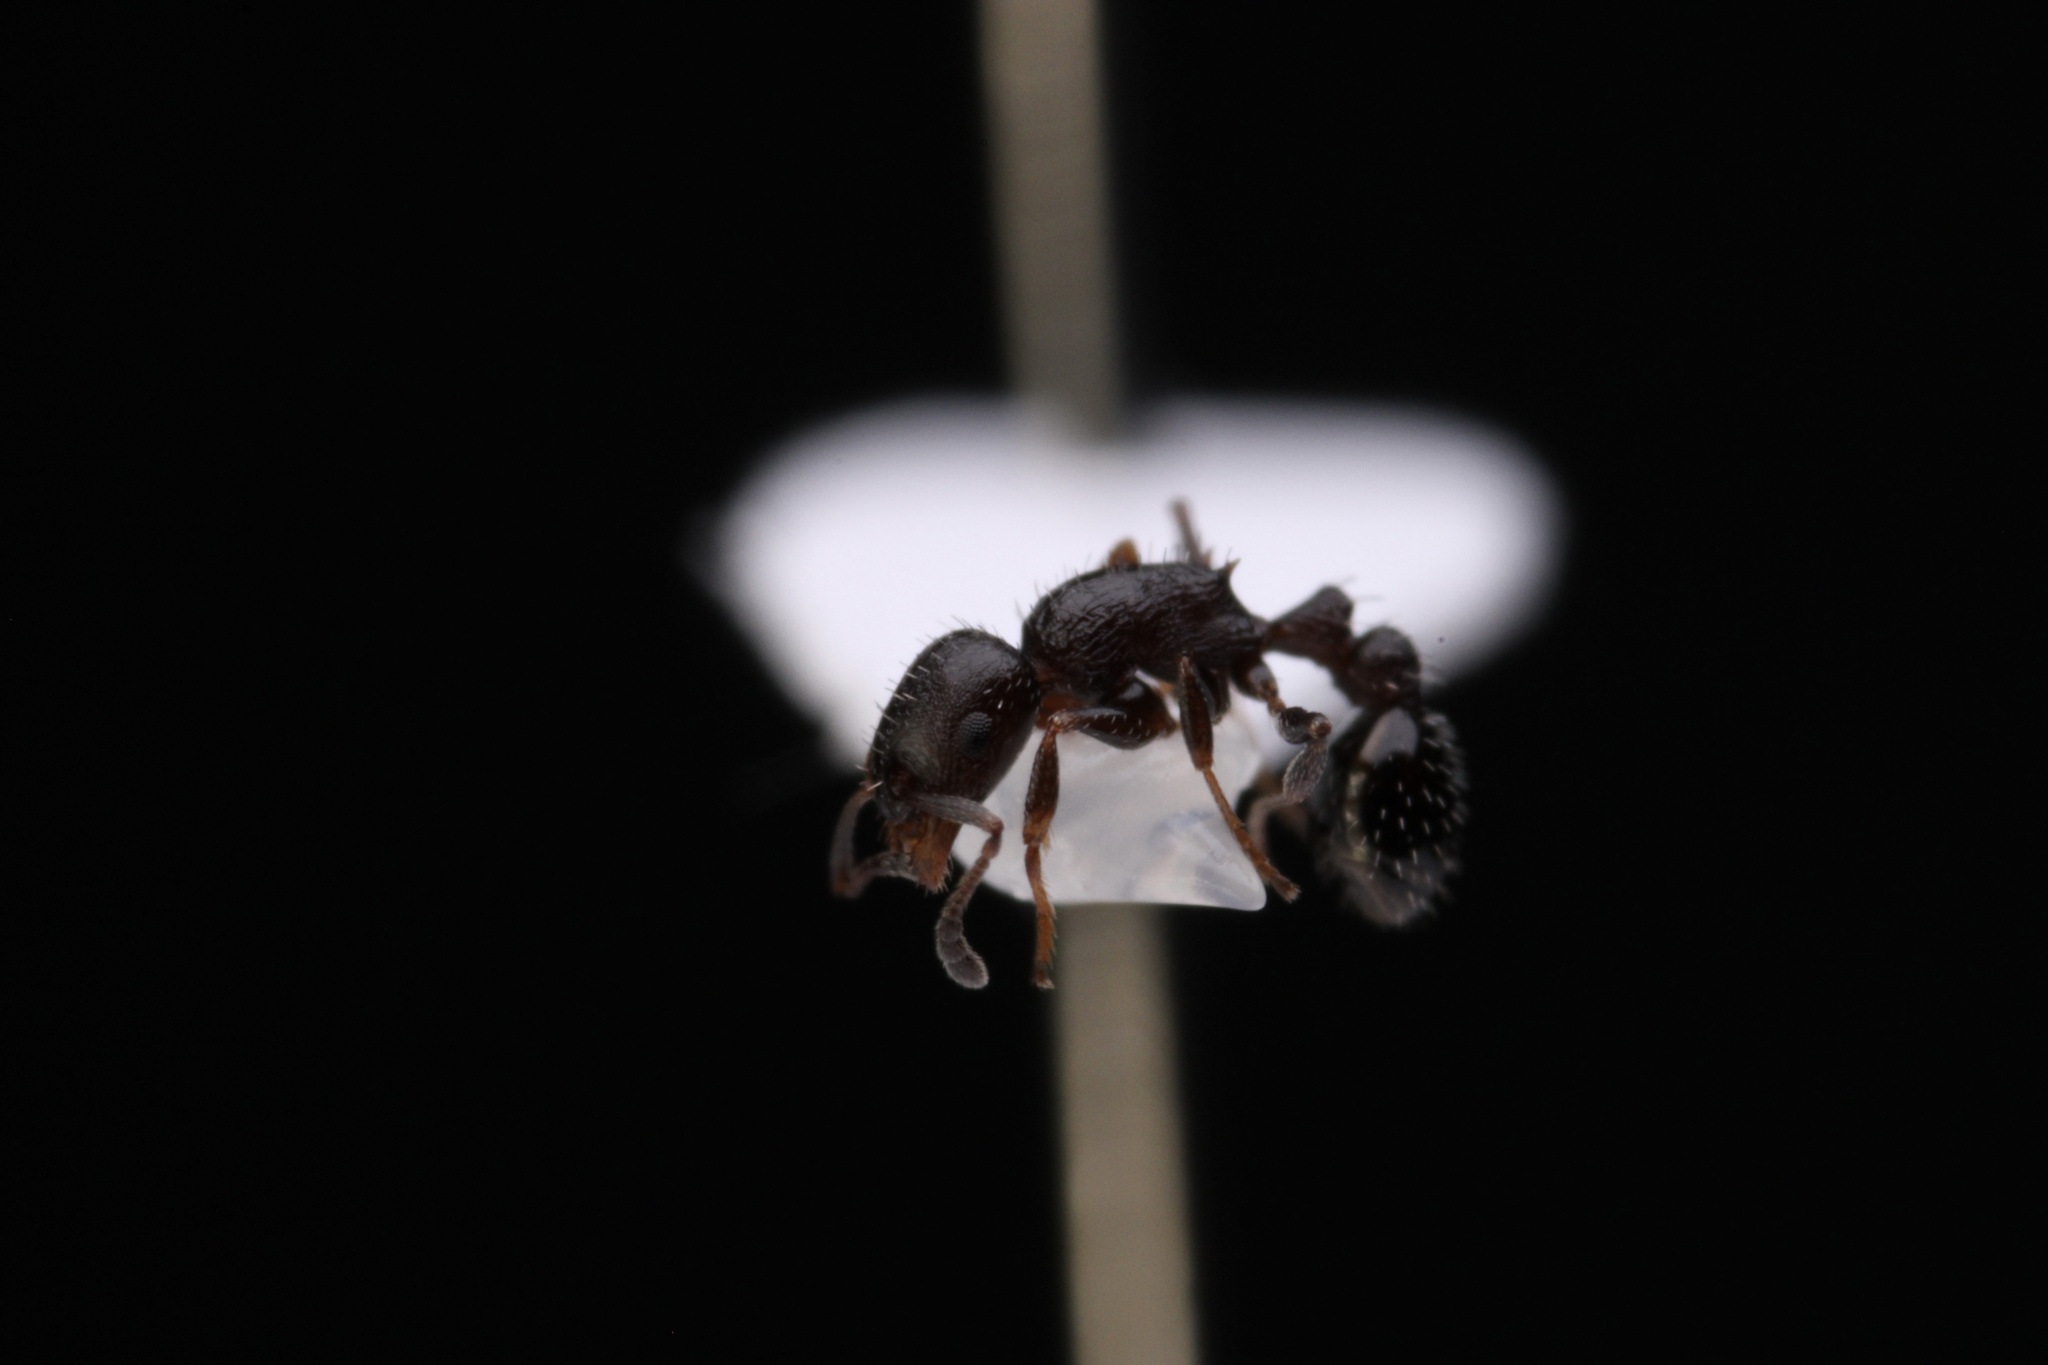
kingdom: Animalia
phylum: Arthropoda
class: Insecta
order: Hymenoptera
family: Formicidae
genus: Temnothorax
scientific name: Temnothorax
